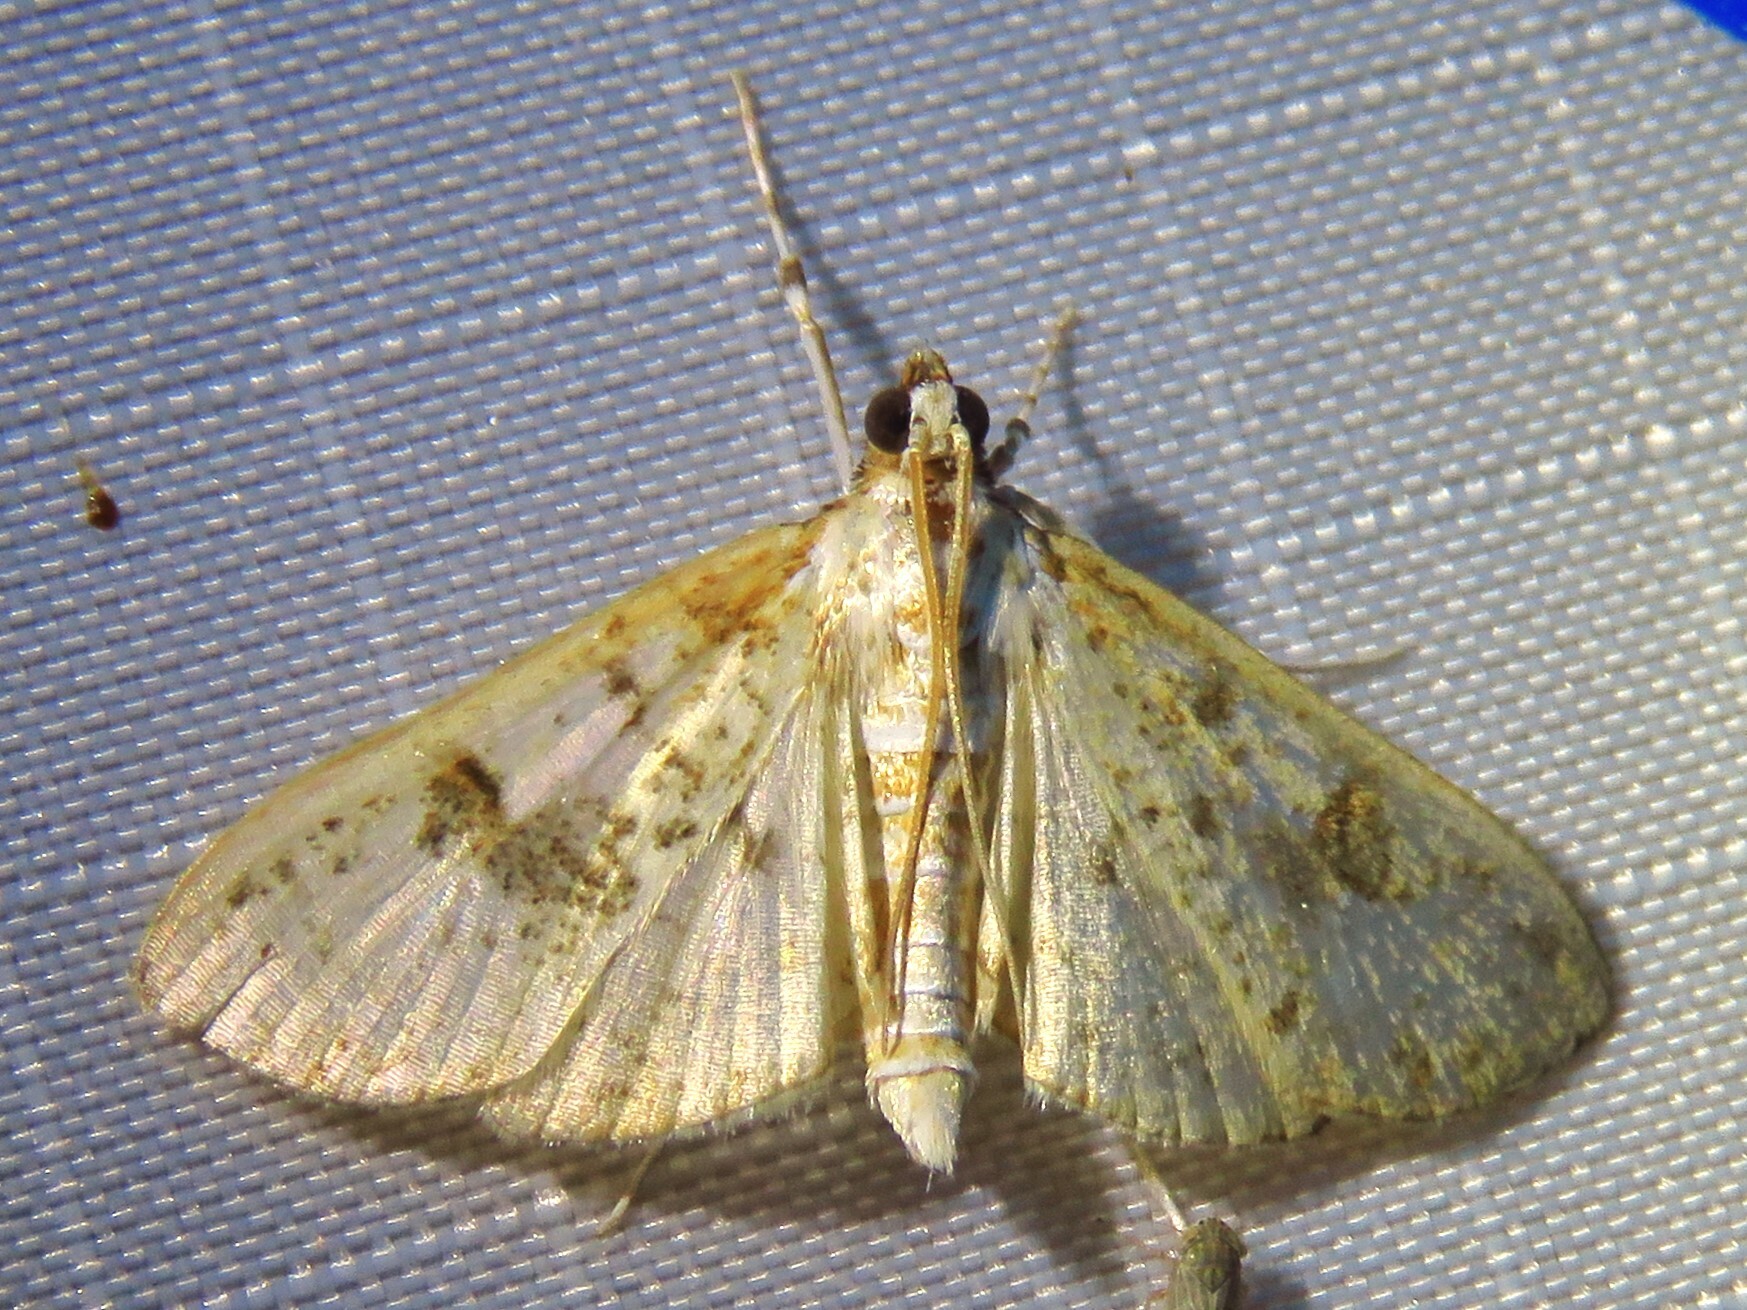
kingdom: Animalia
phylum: Arthropoda
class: Insecta
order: Lepidoptera
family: Crambidae
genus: Palpita
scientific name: Palpita freemanalis
